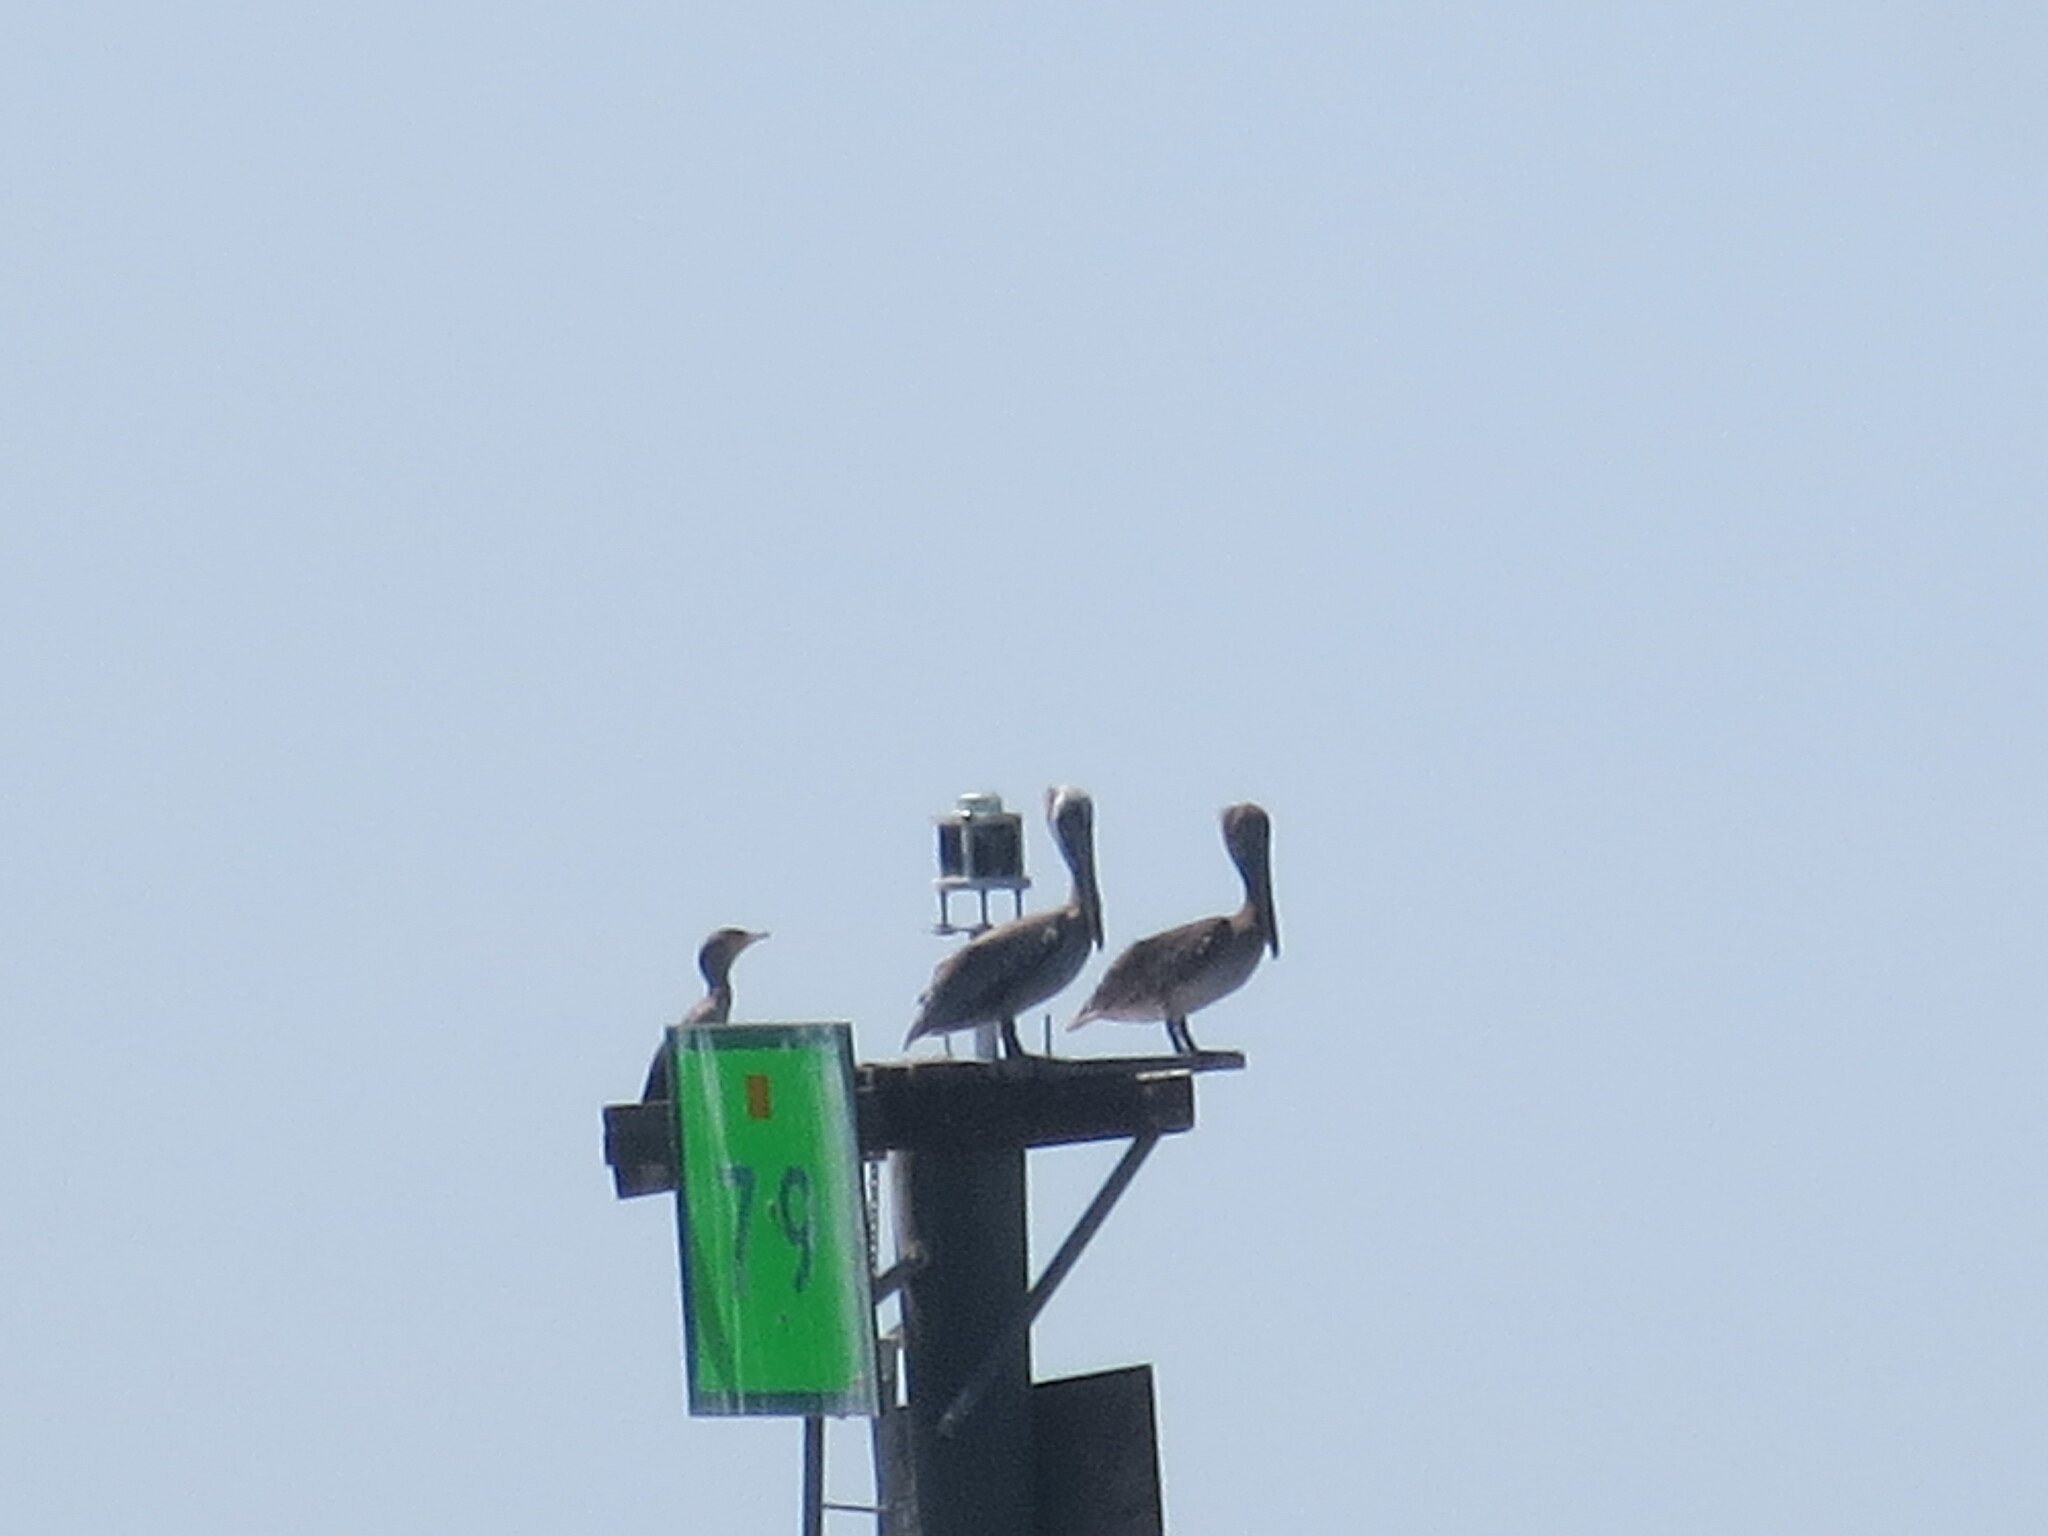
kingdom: Animalia
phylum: Chordata
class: Aves
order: Pelecaniformes
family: Pelecanidae
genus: Pelecanus
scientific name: Pelecanus occidentalis
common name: Brown pelican
